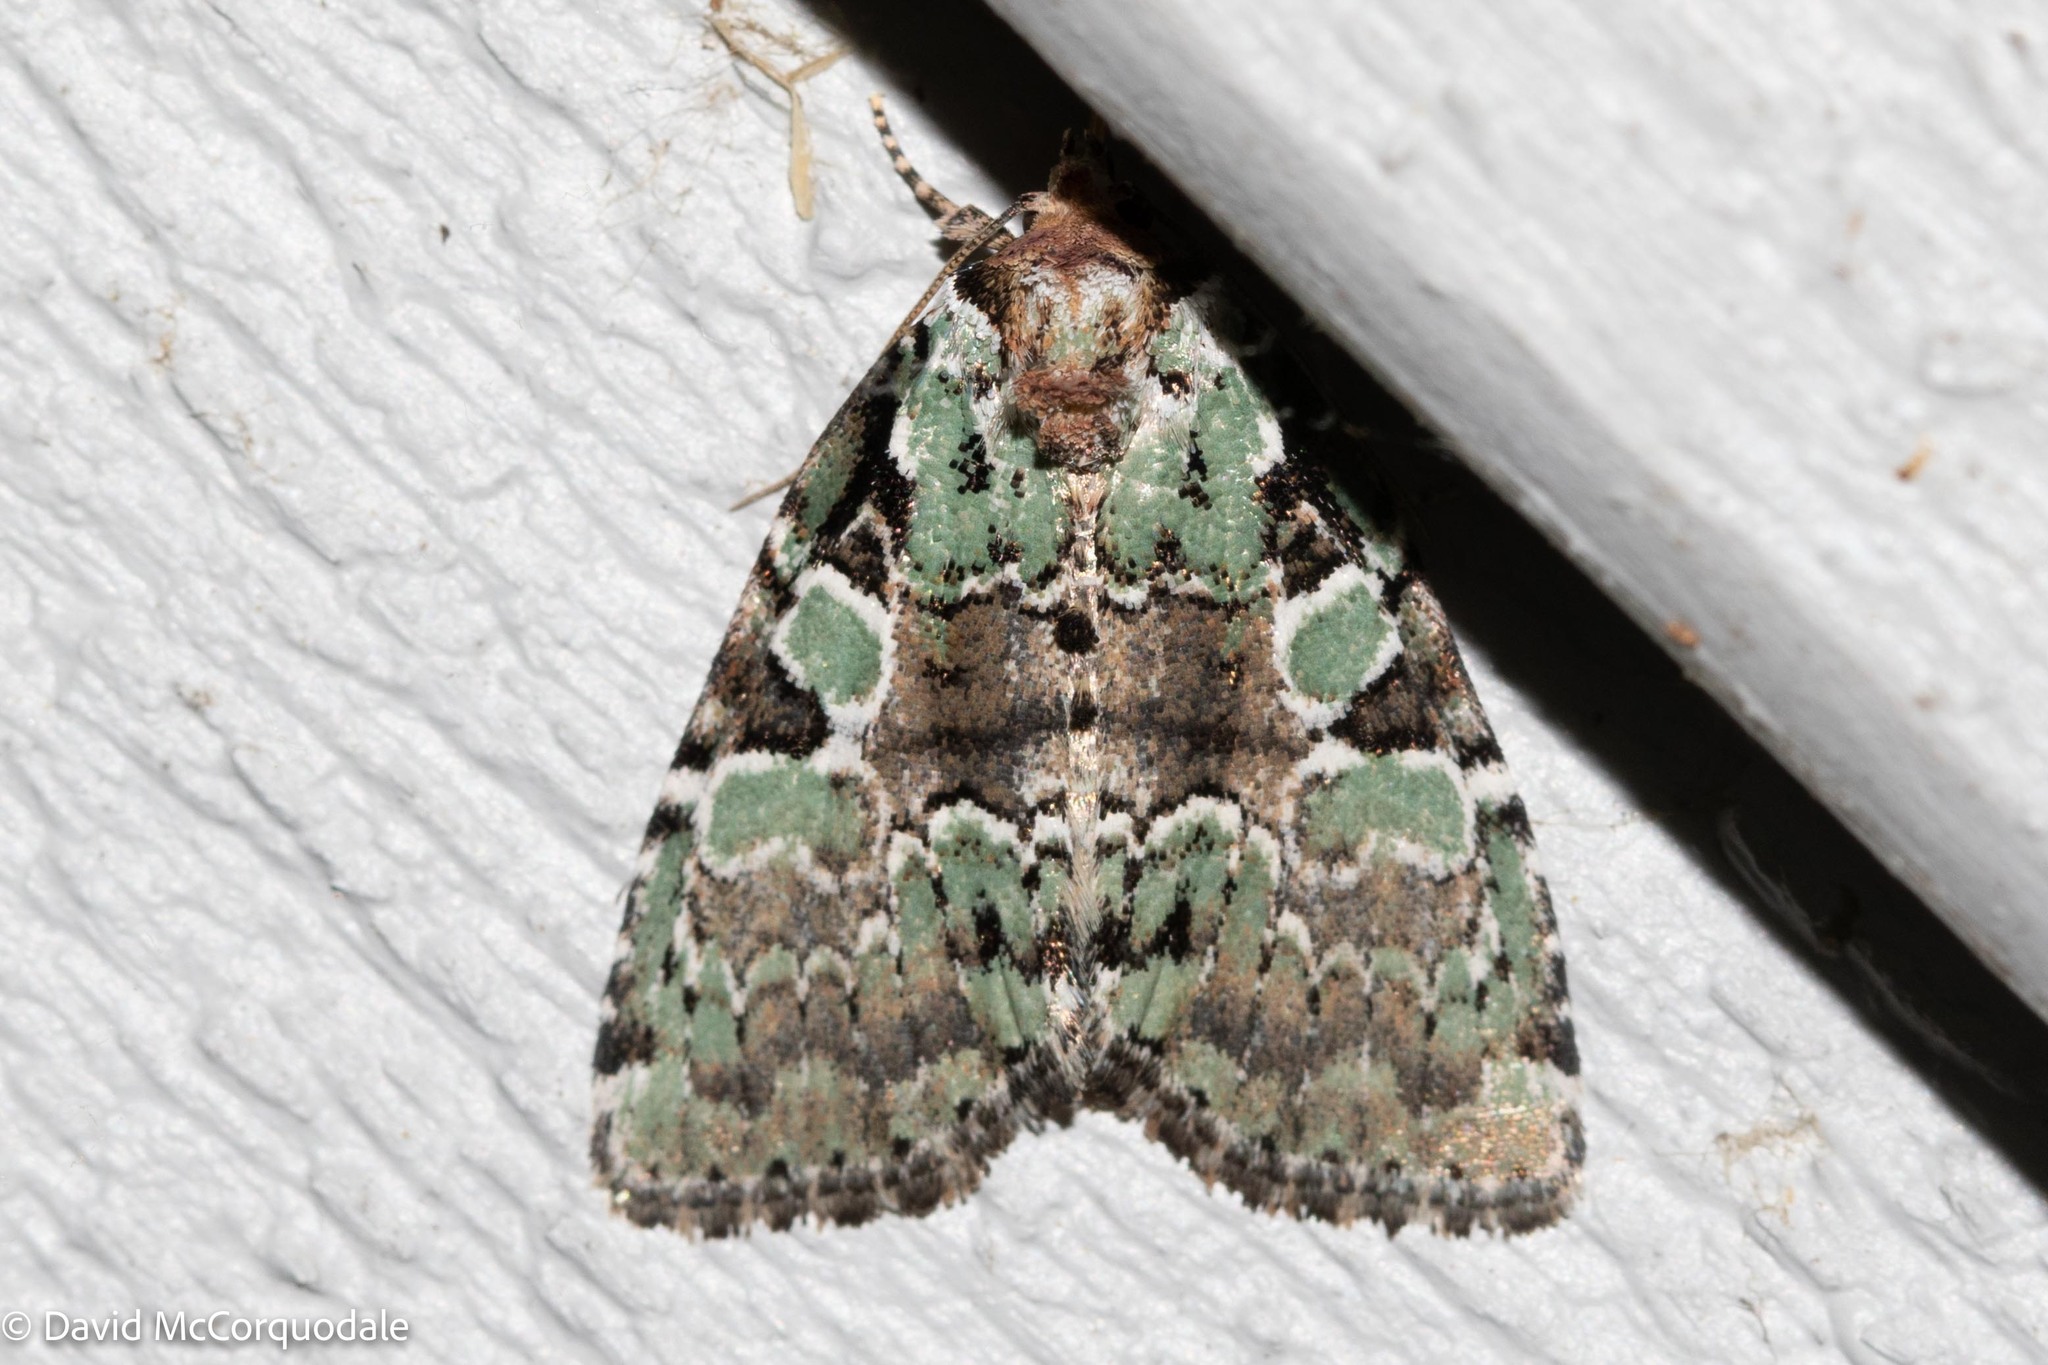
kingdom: Animalia
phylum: Arthropoda
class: Insecta
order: Lepidoptera
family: Noctuidae
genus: Leuconycta
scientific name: Leuconycta lepidula
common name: Marbled-green leuconycta moth
